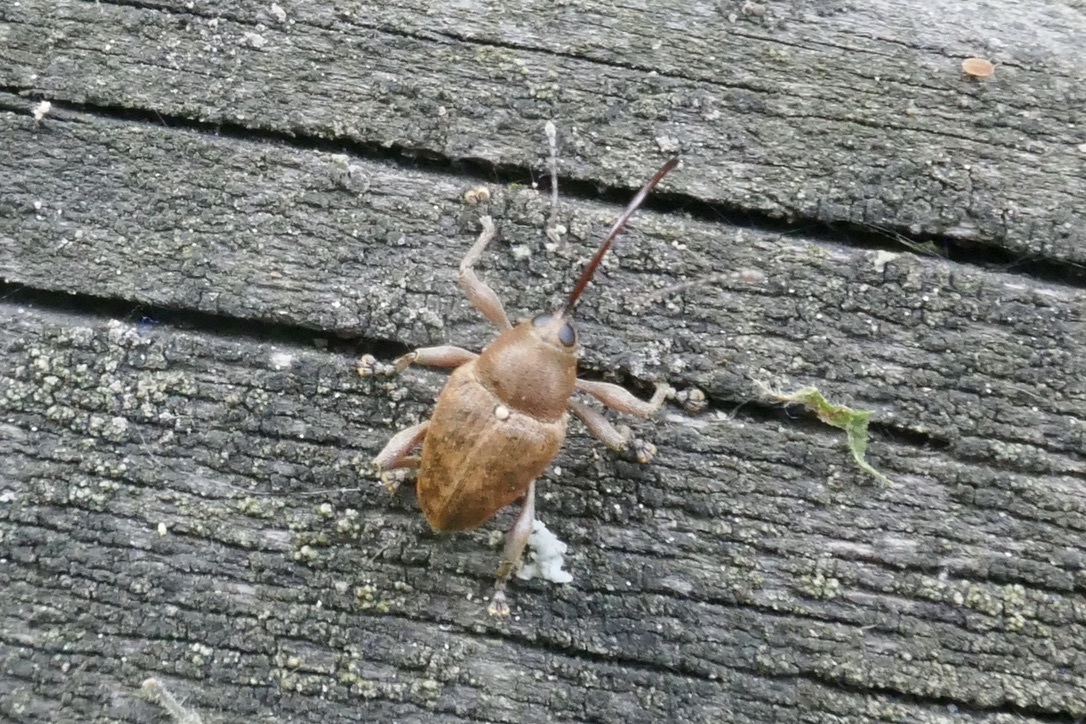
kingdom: Animalia
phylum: Arthropoda
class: Insecta
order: Coleoptera
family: Curculionidae
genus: Curculio
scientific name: Curculio glandium
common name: Acorn weevil
